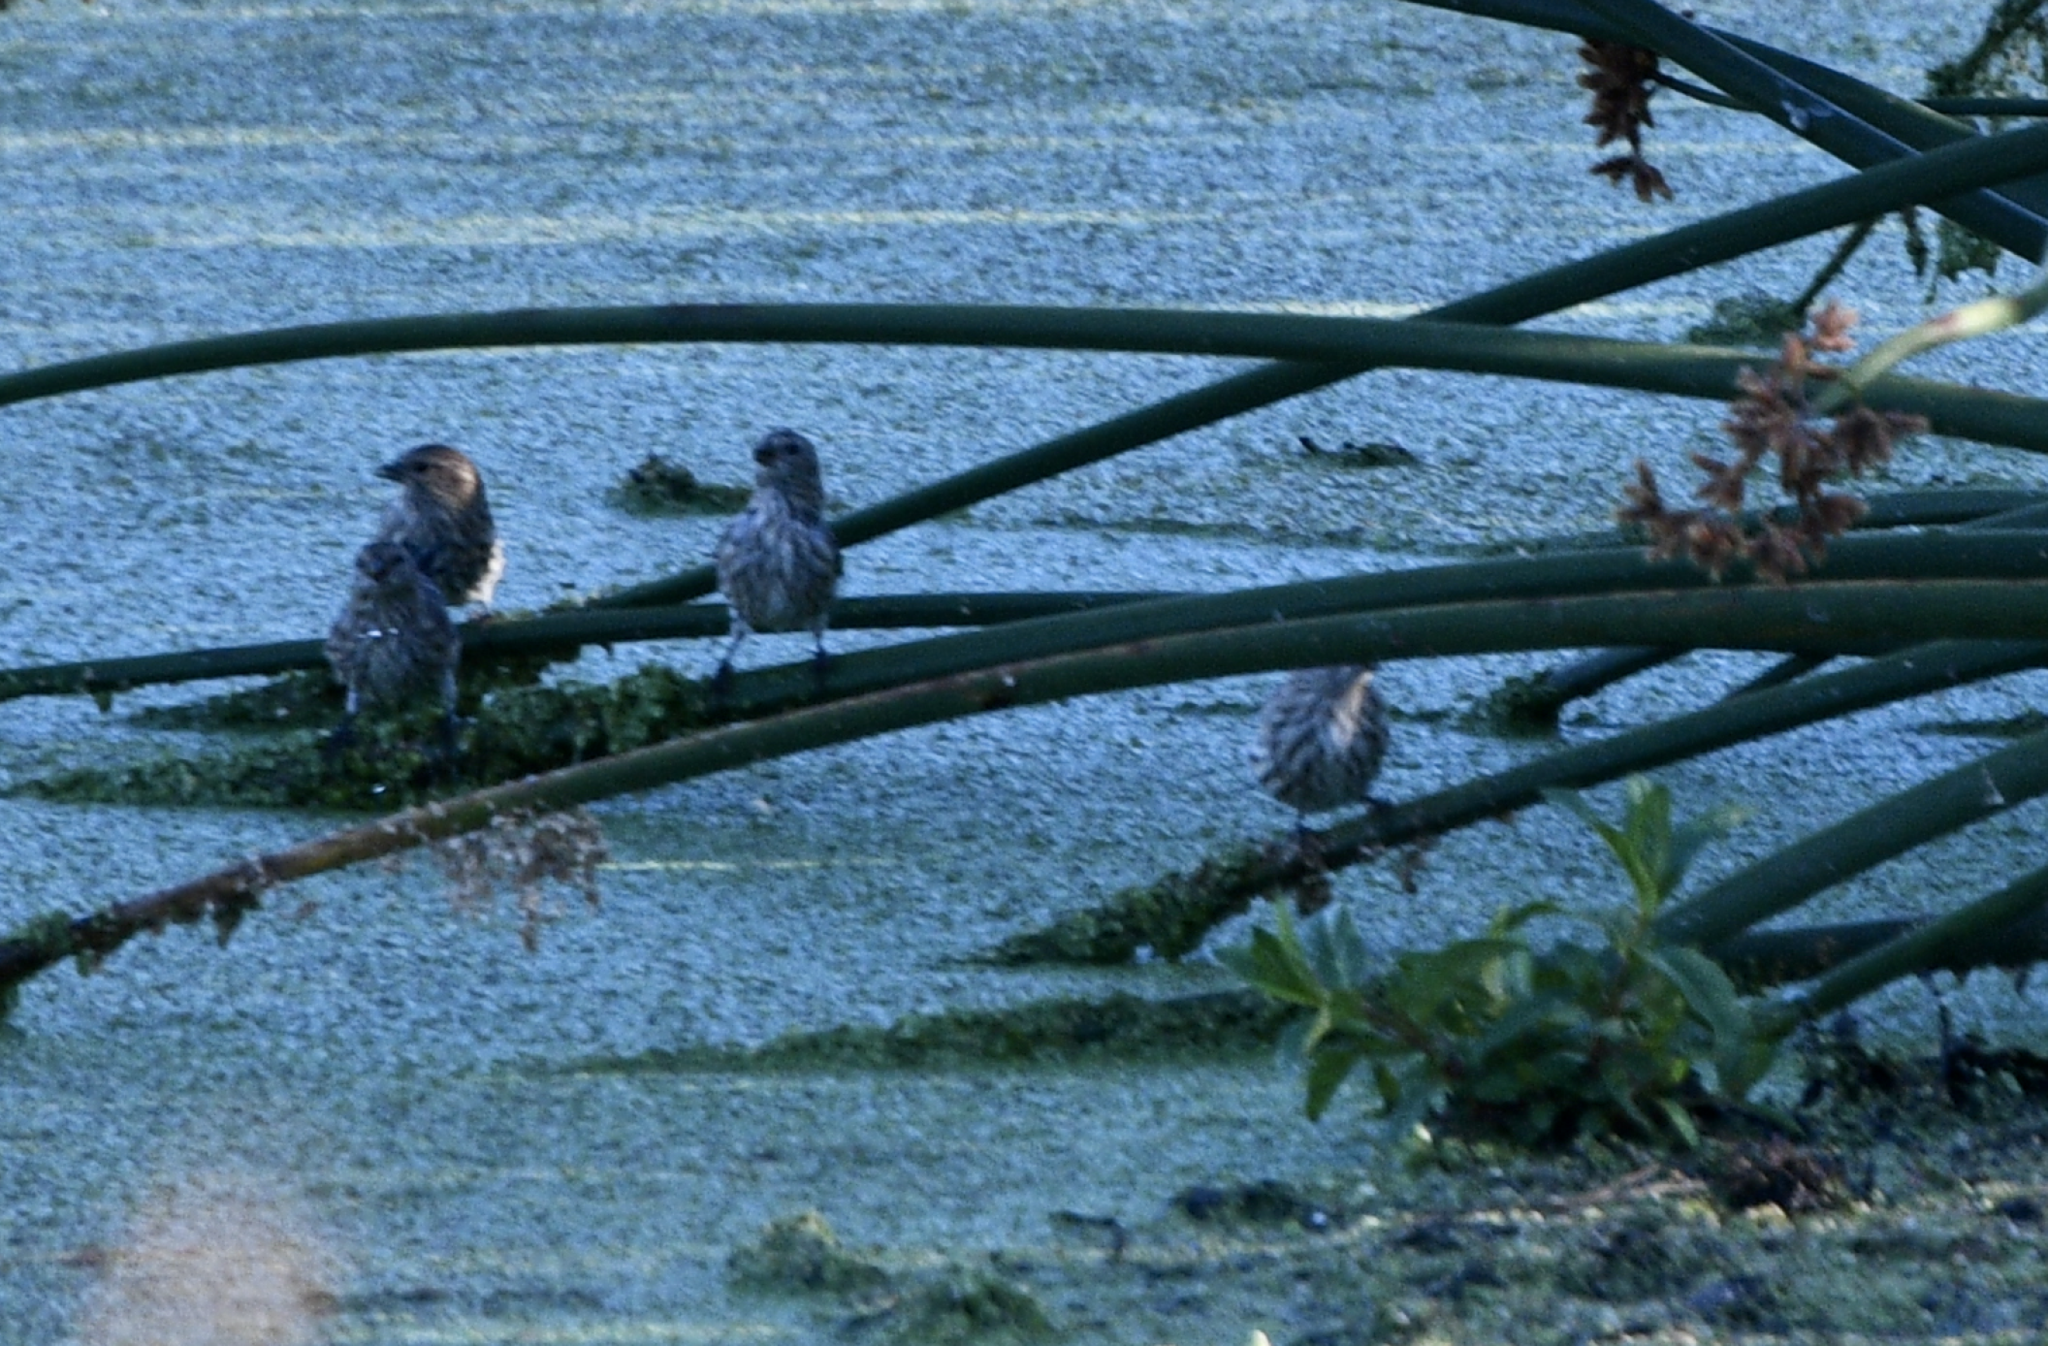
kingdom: Animalia
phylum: Chordata
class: Aves
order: Passeriformes
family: Fringillidae
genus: Spinus
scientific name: Spinus pinus
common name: Pine siskin
